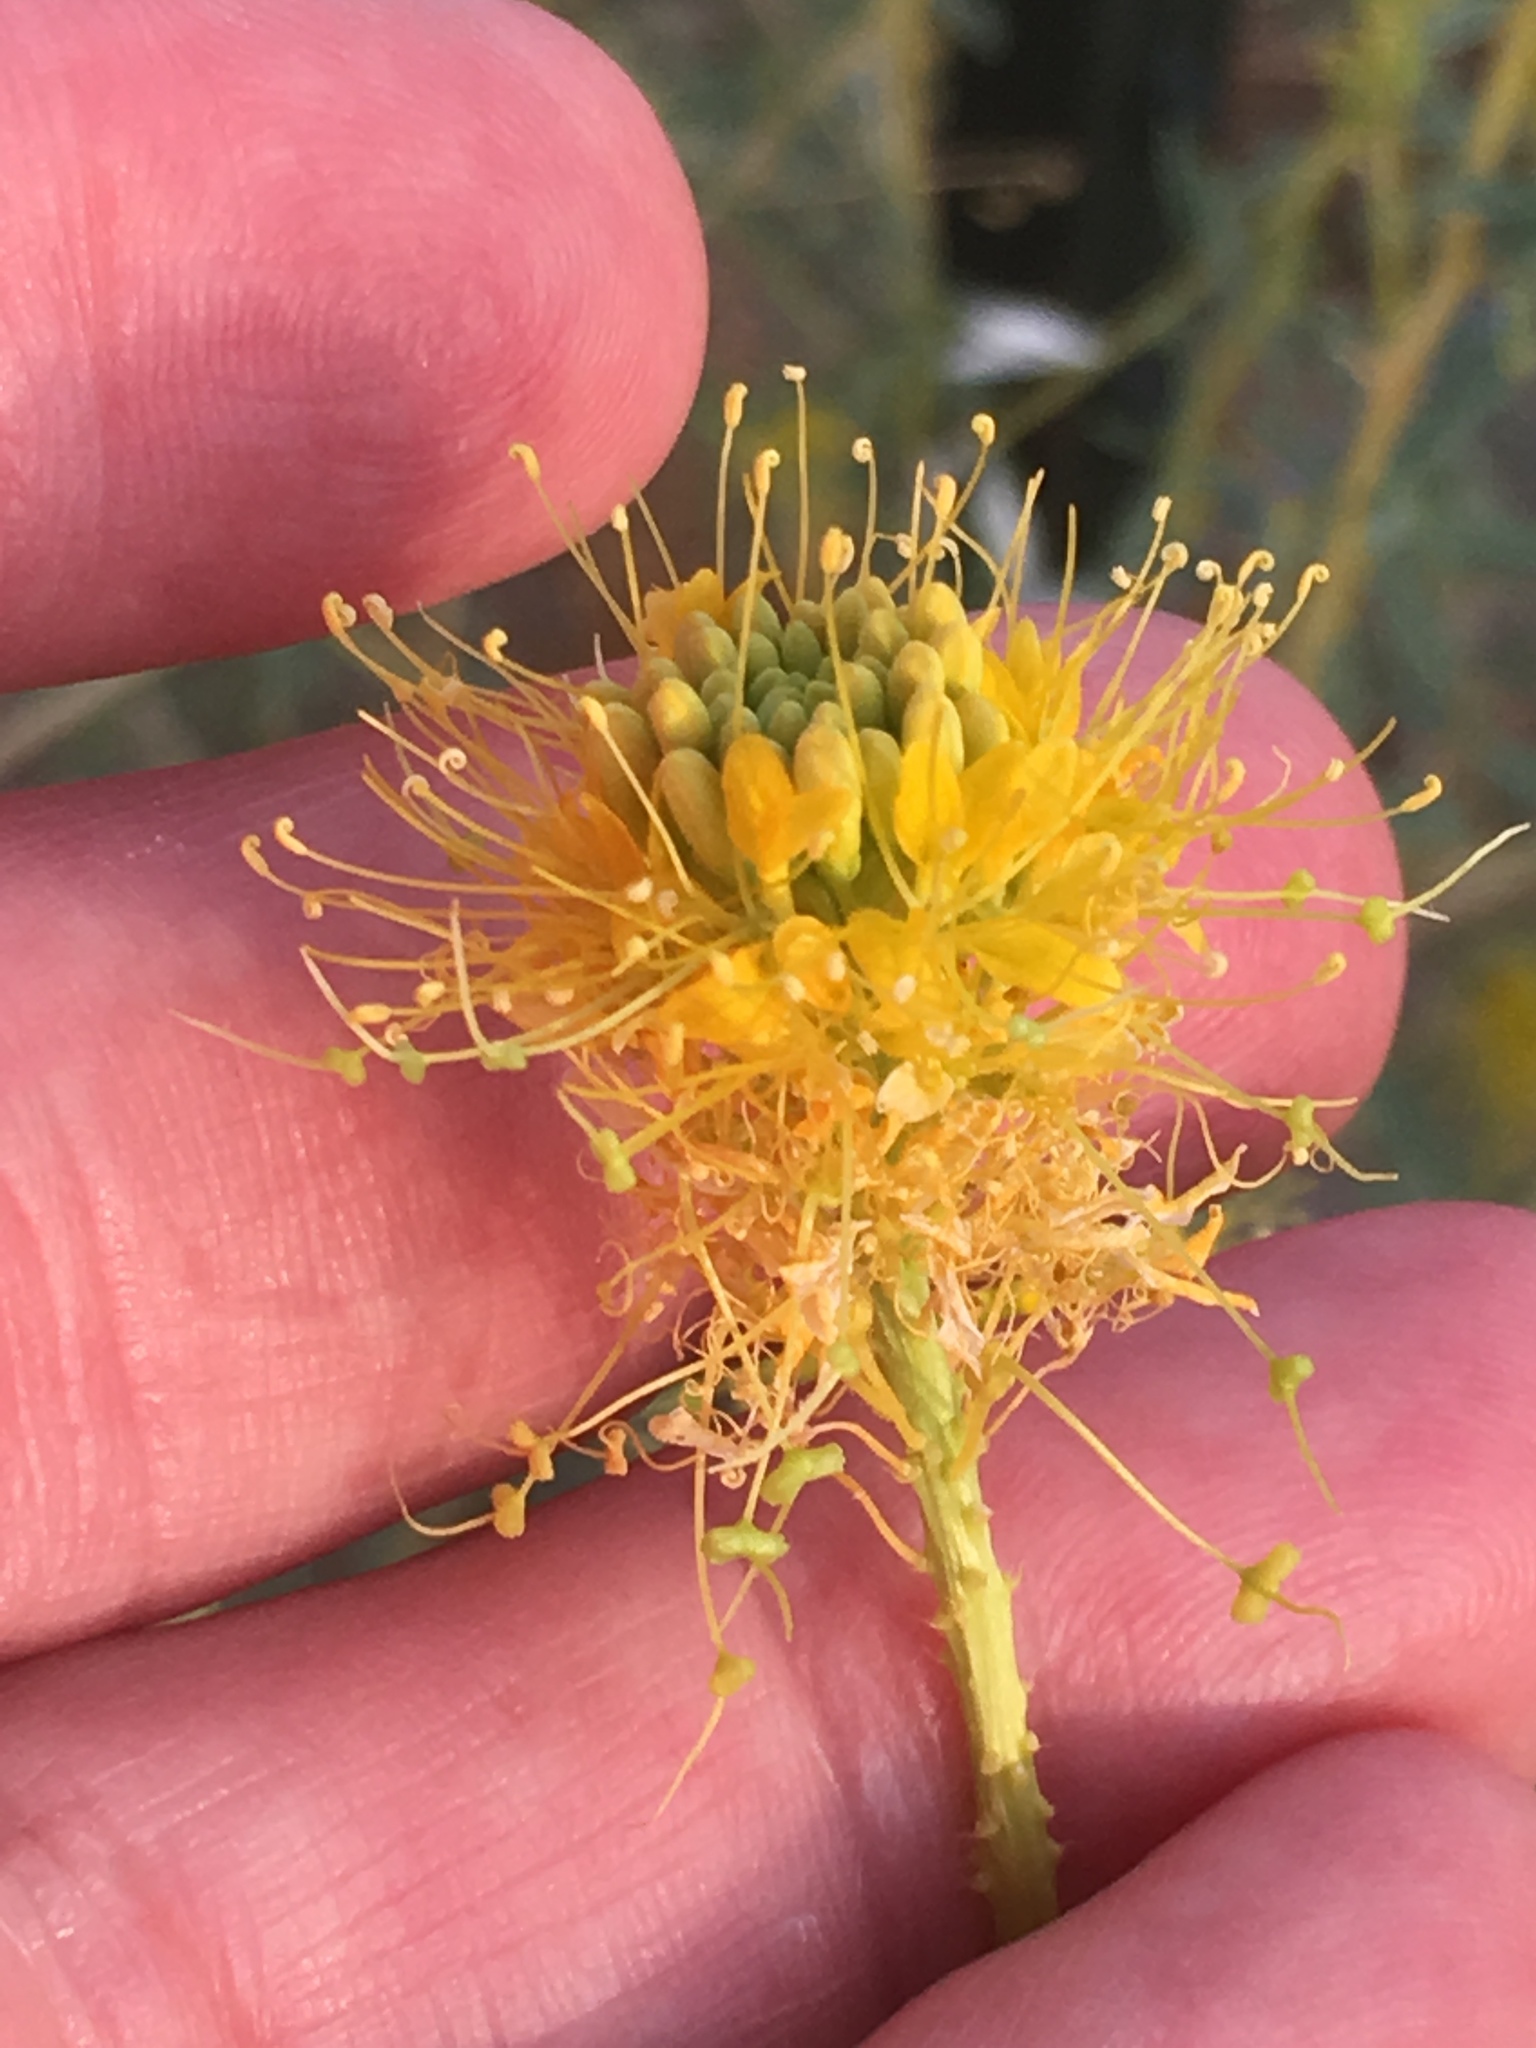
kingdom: Plantae
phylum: Tracheophyta
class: Magnoliopsida
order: Brassicales
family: Cleomaceae
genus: Cleomella
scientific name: Cleomella palmeri
